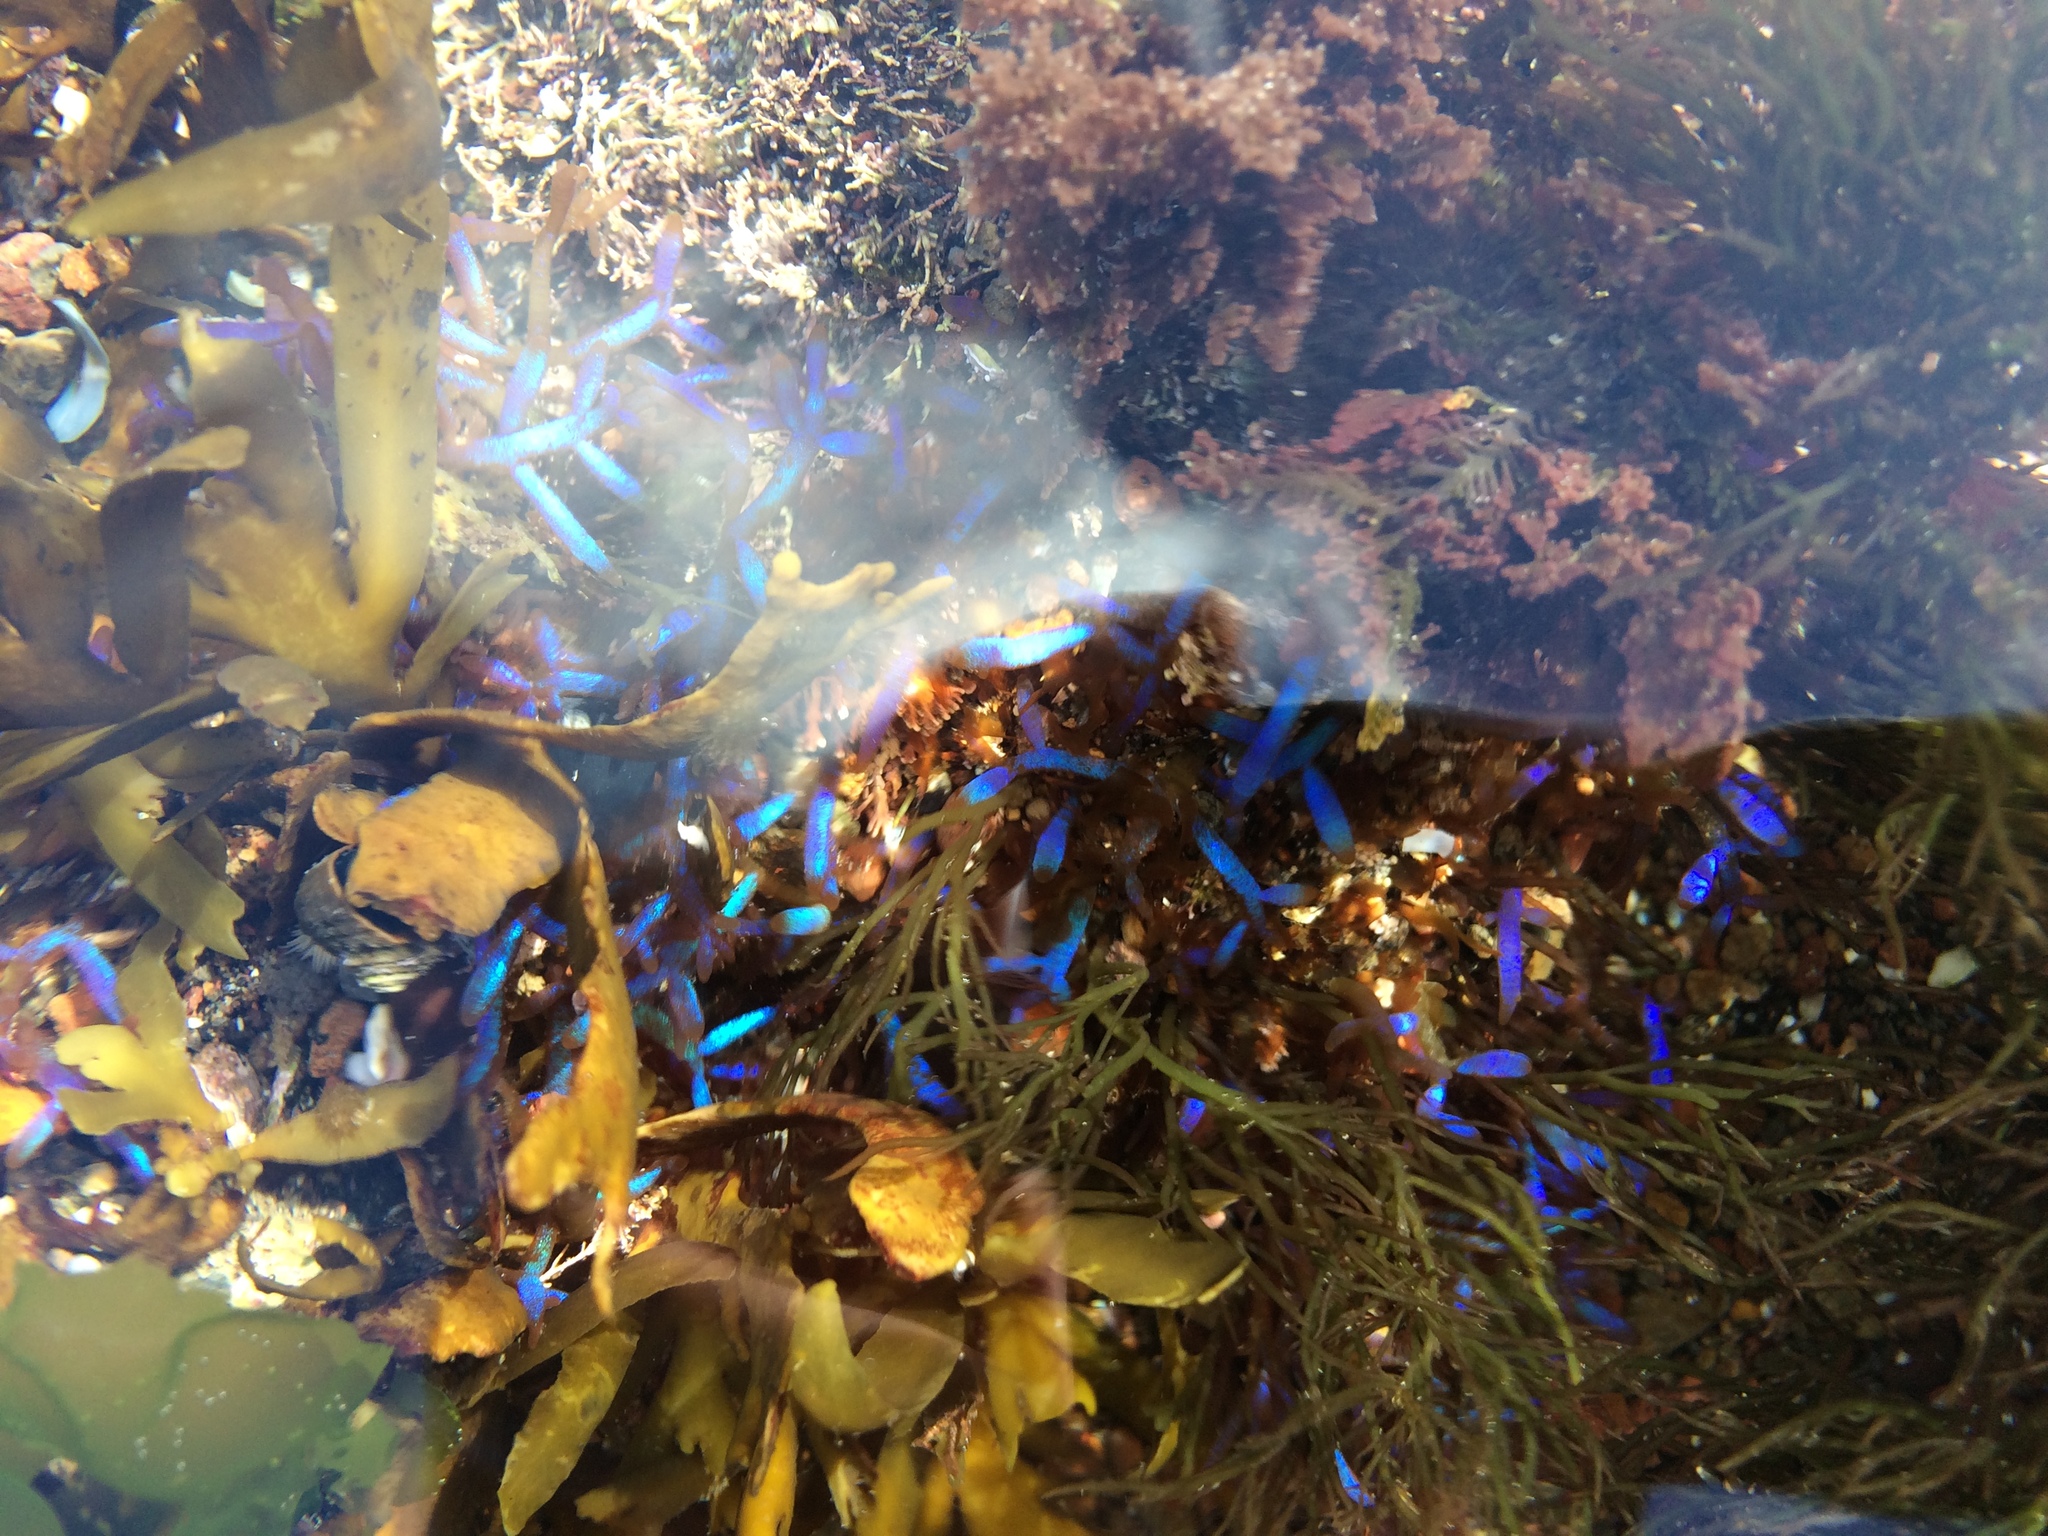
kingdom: Plantae
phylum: Rhodophyta
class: Florideophyceae
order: Rhodymeniales
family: Champiaceae
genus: Champia
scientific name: Champia laingii
